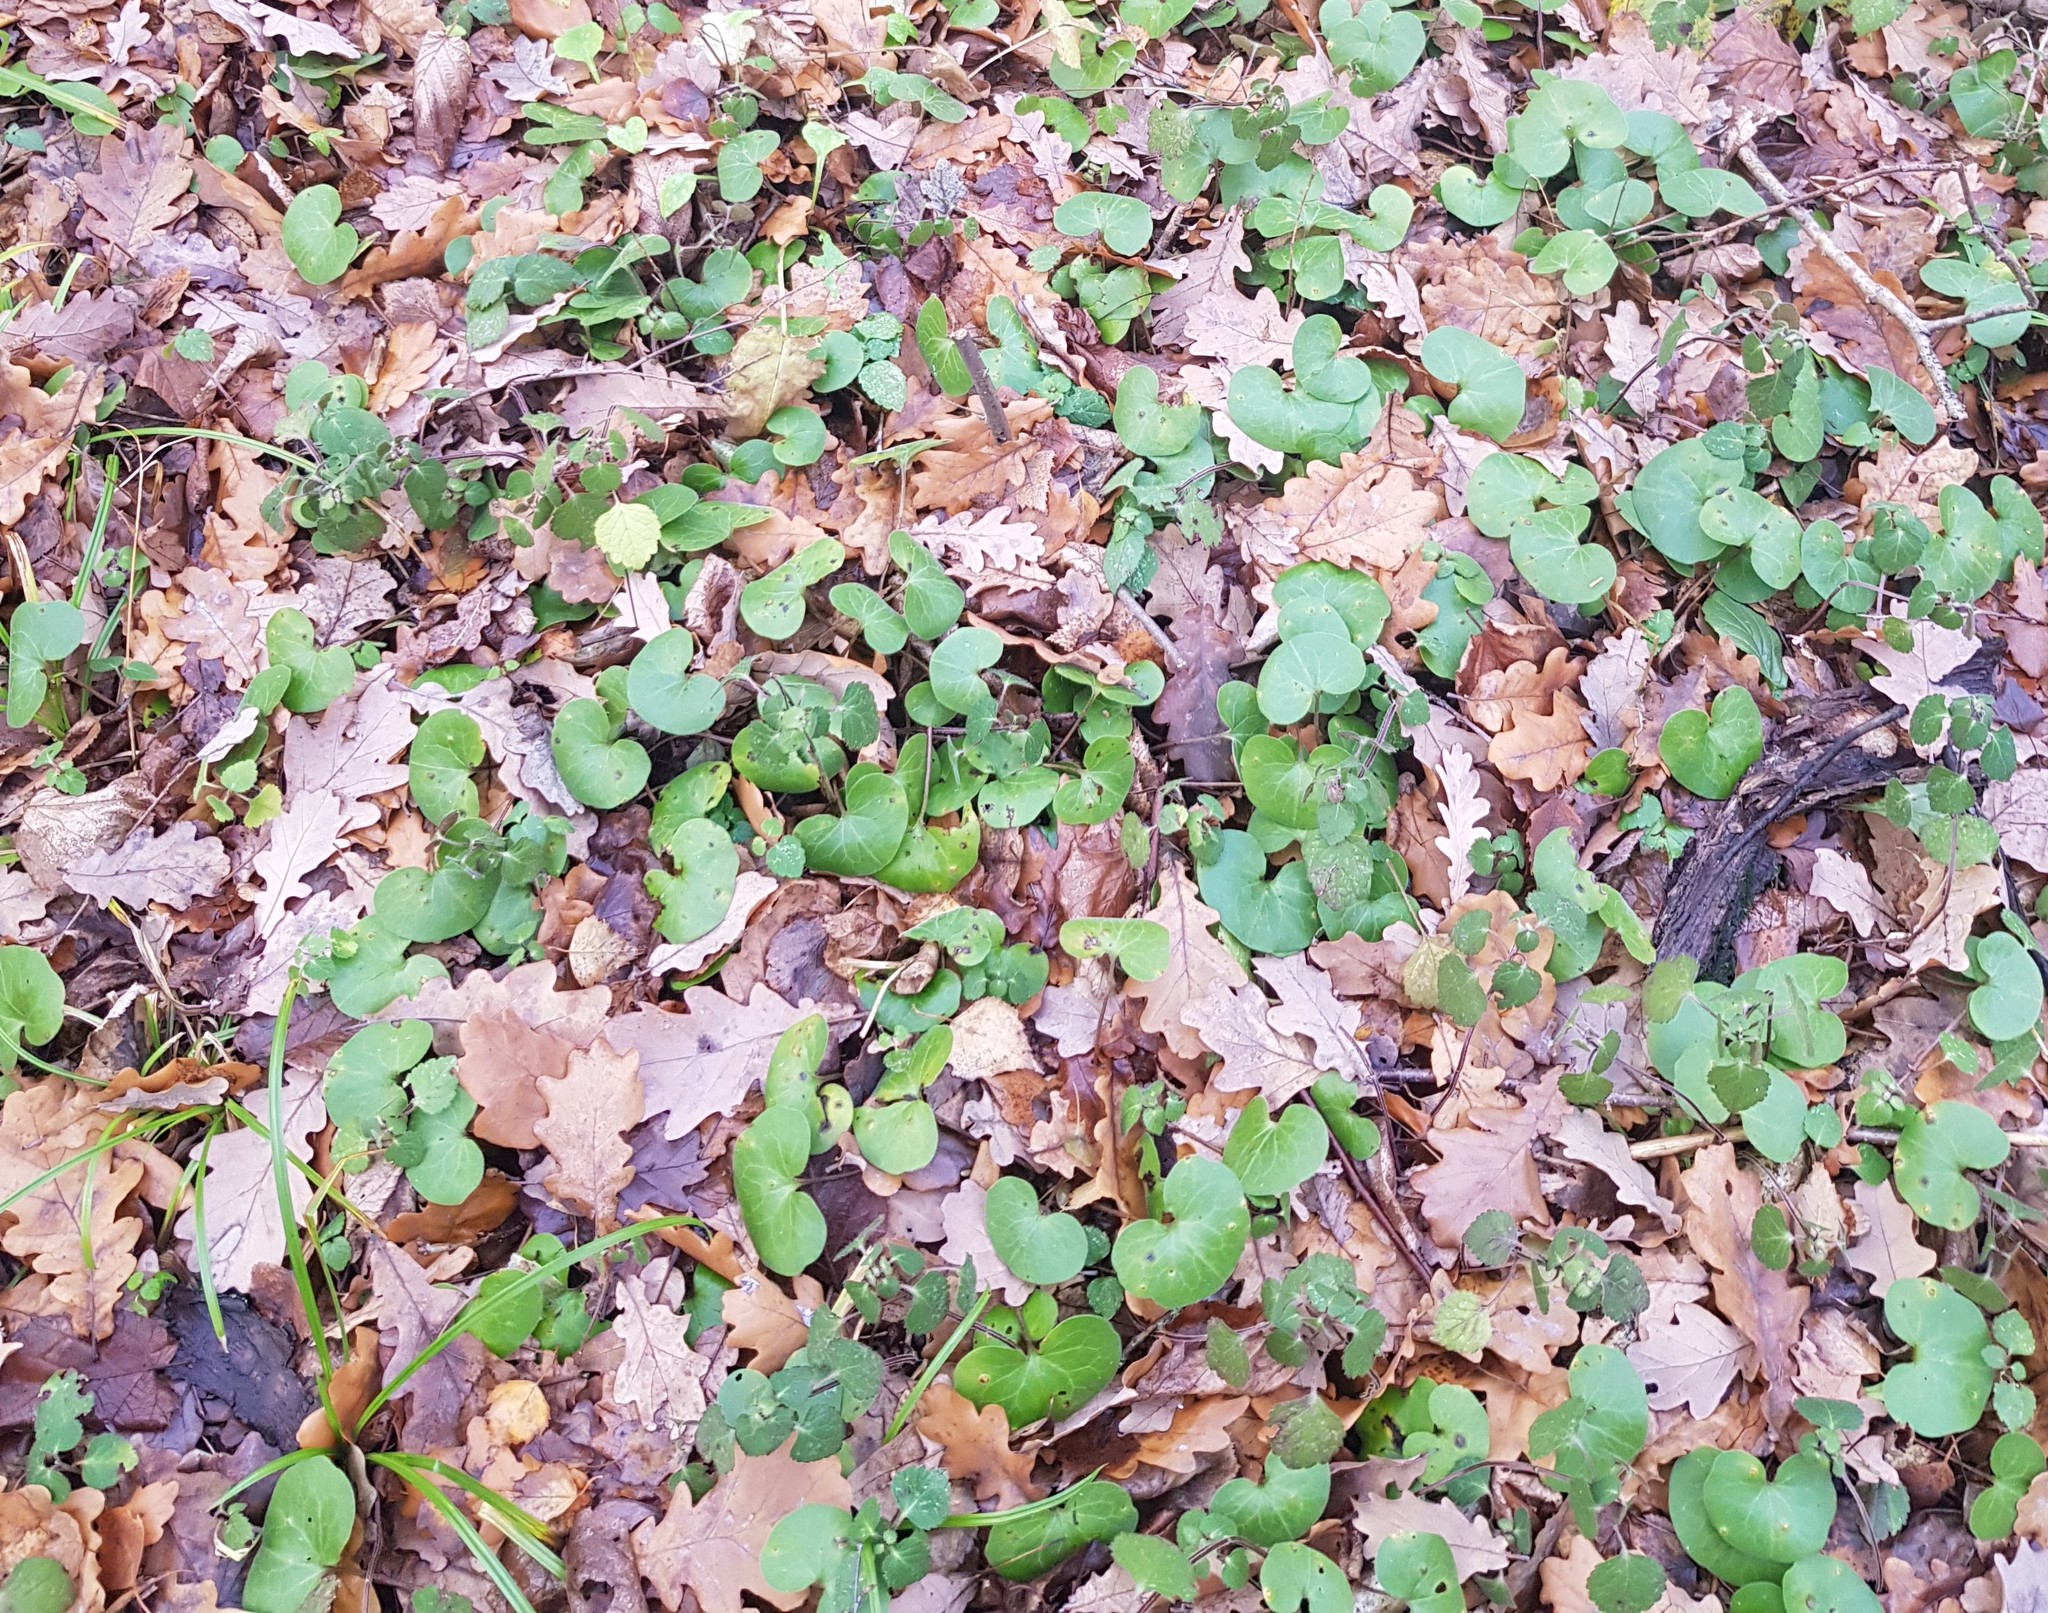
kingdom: Plantae
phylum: Tracheophyta
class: Magnoliopsida
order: Piperales
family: Aristolochiaceae
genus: Asarum
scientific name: Asarum europaeum
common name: Asarabacca
